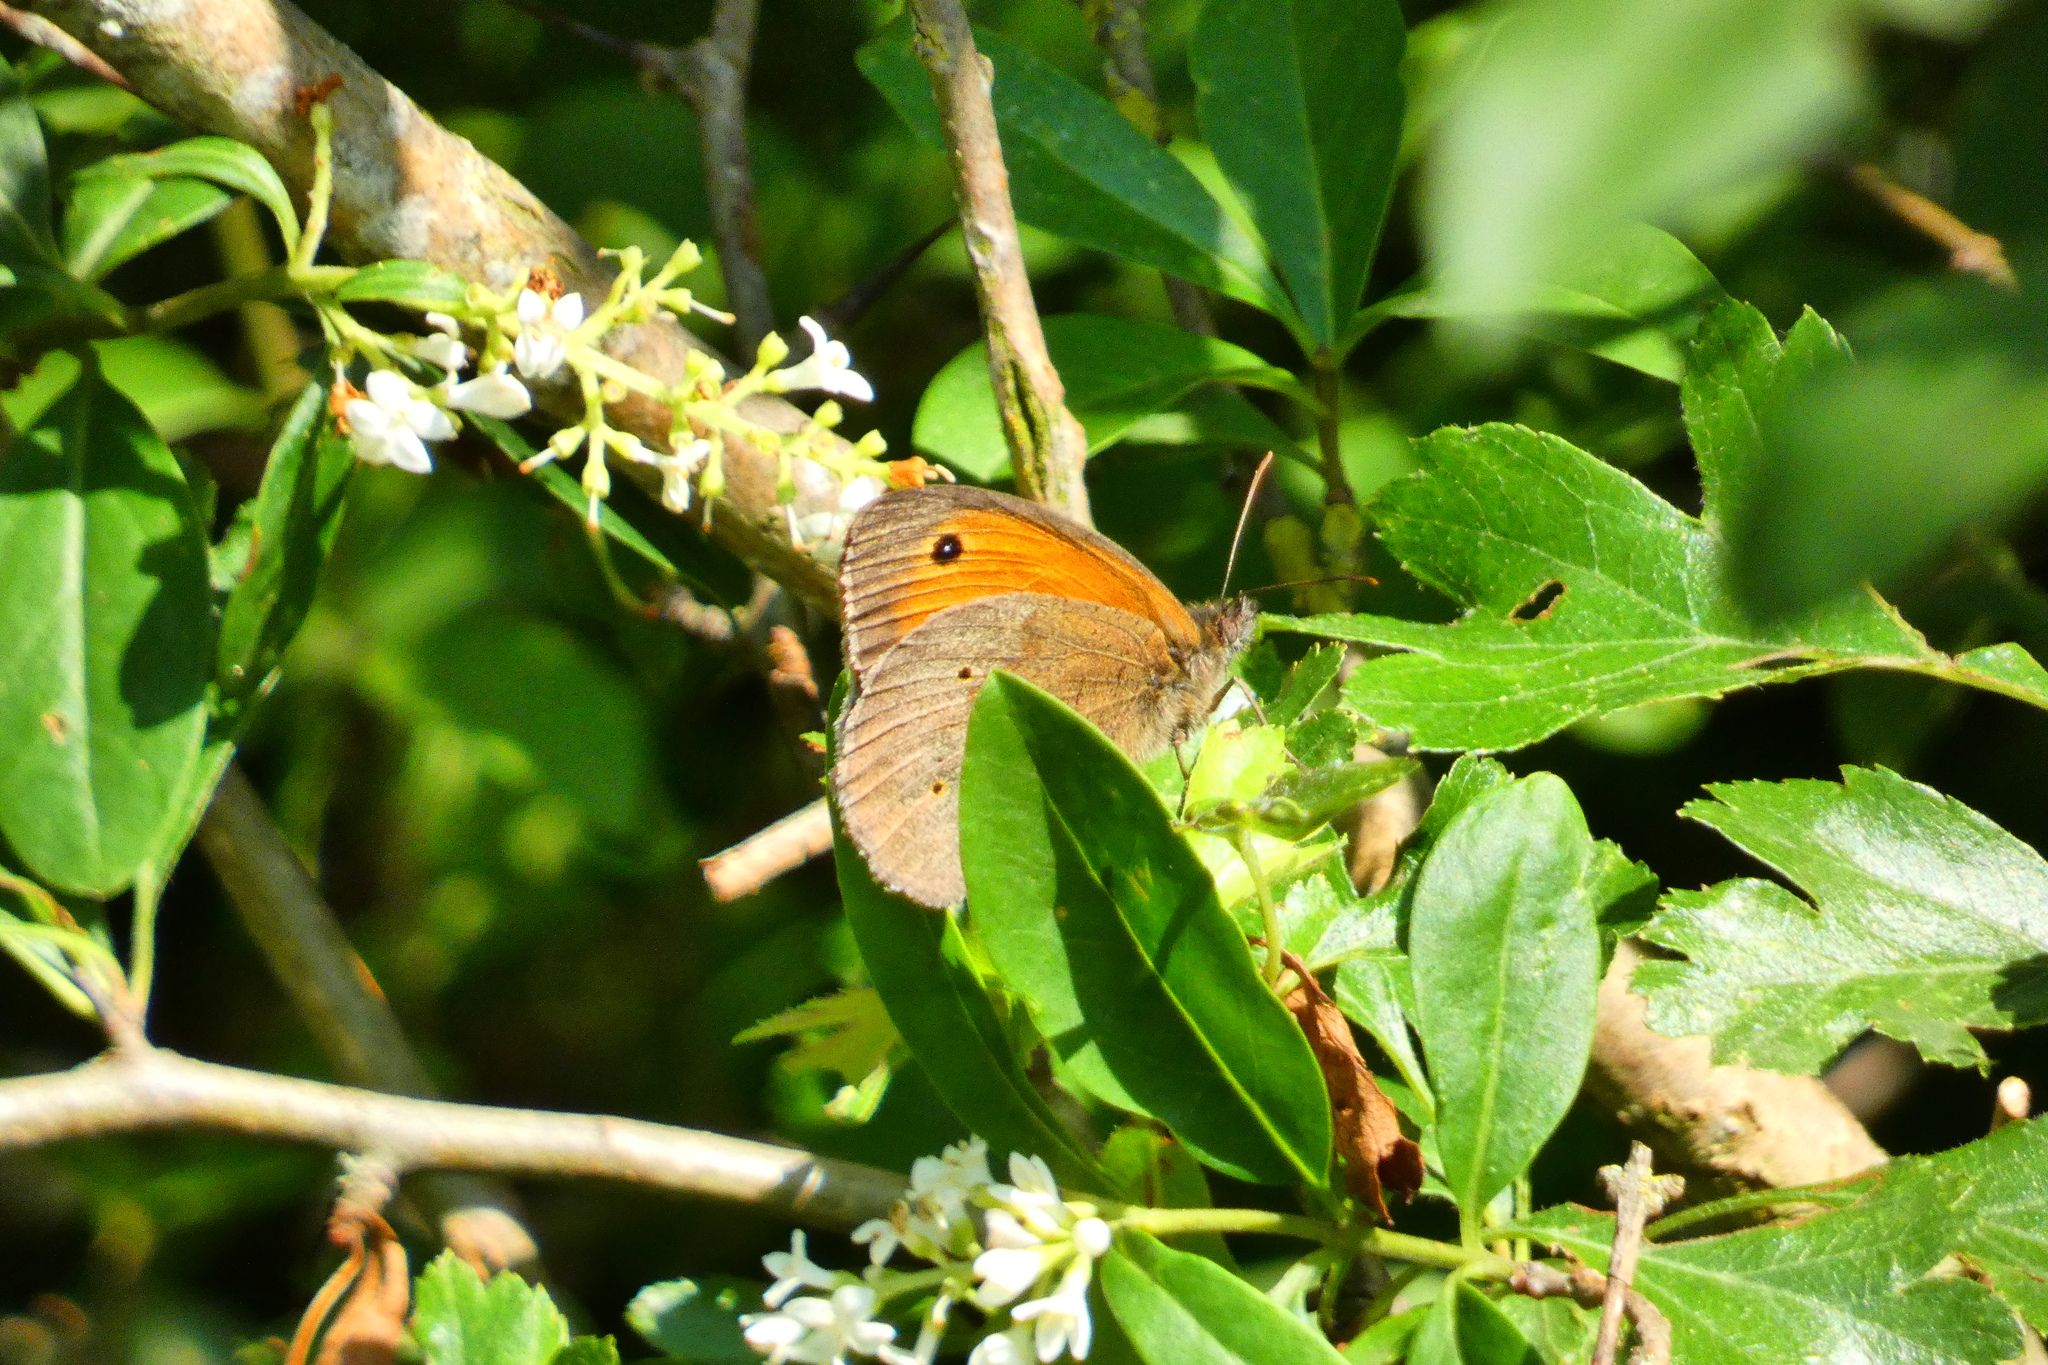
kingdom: Animalia
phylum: Arthropoda
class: Insecta
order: Lepidoptera
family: Nymphalidae
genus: Maniola
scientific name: Maniola jurtina
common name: Meadow brown
